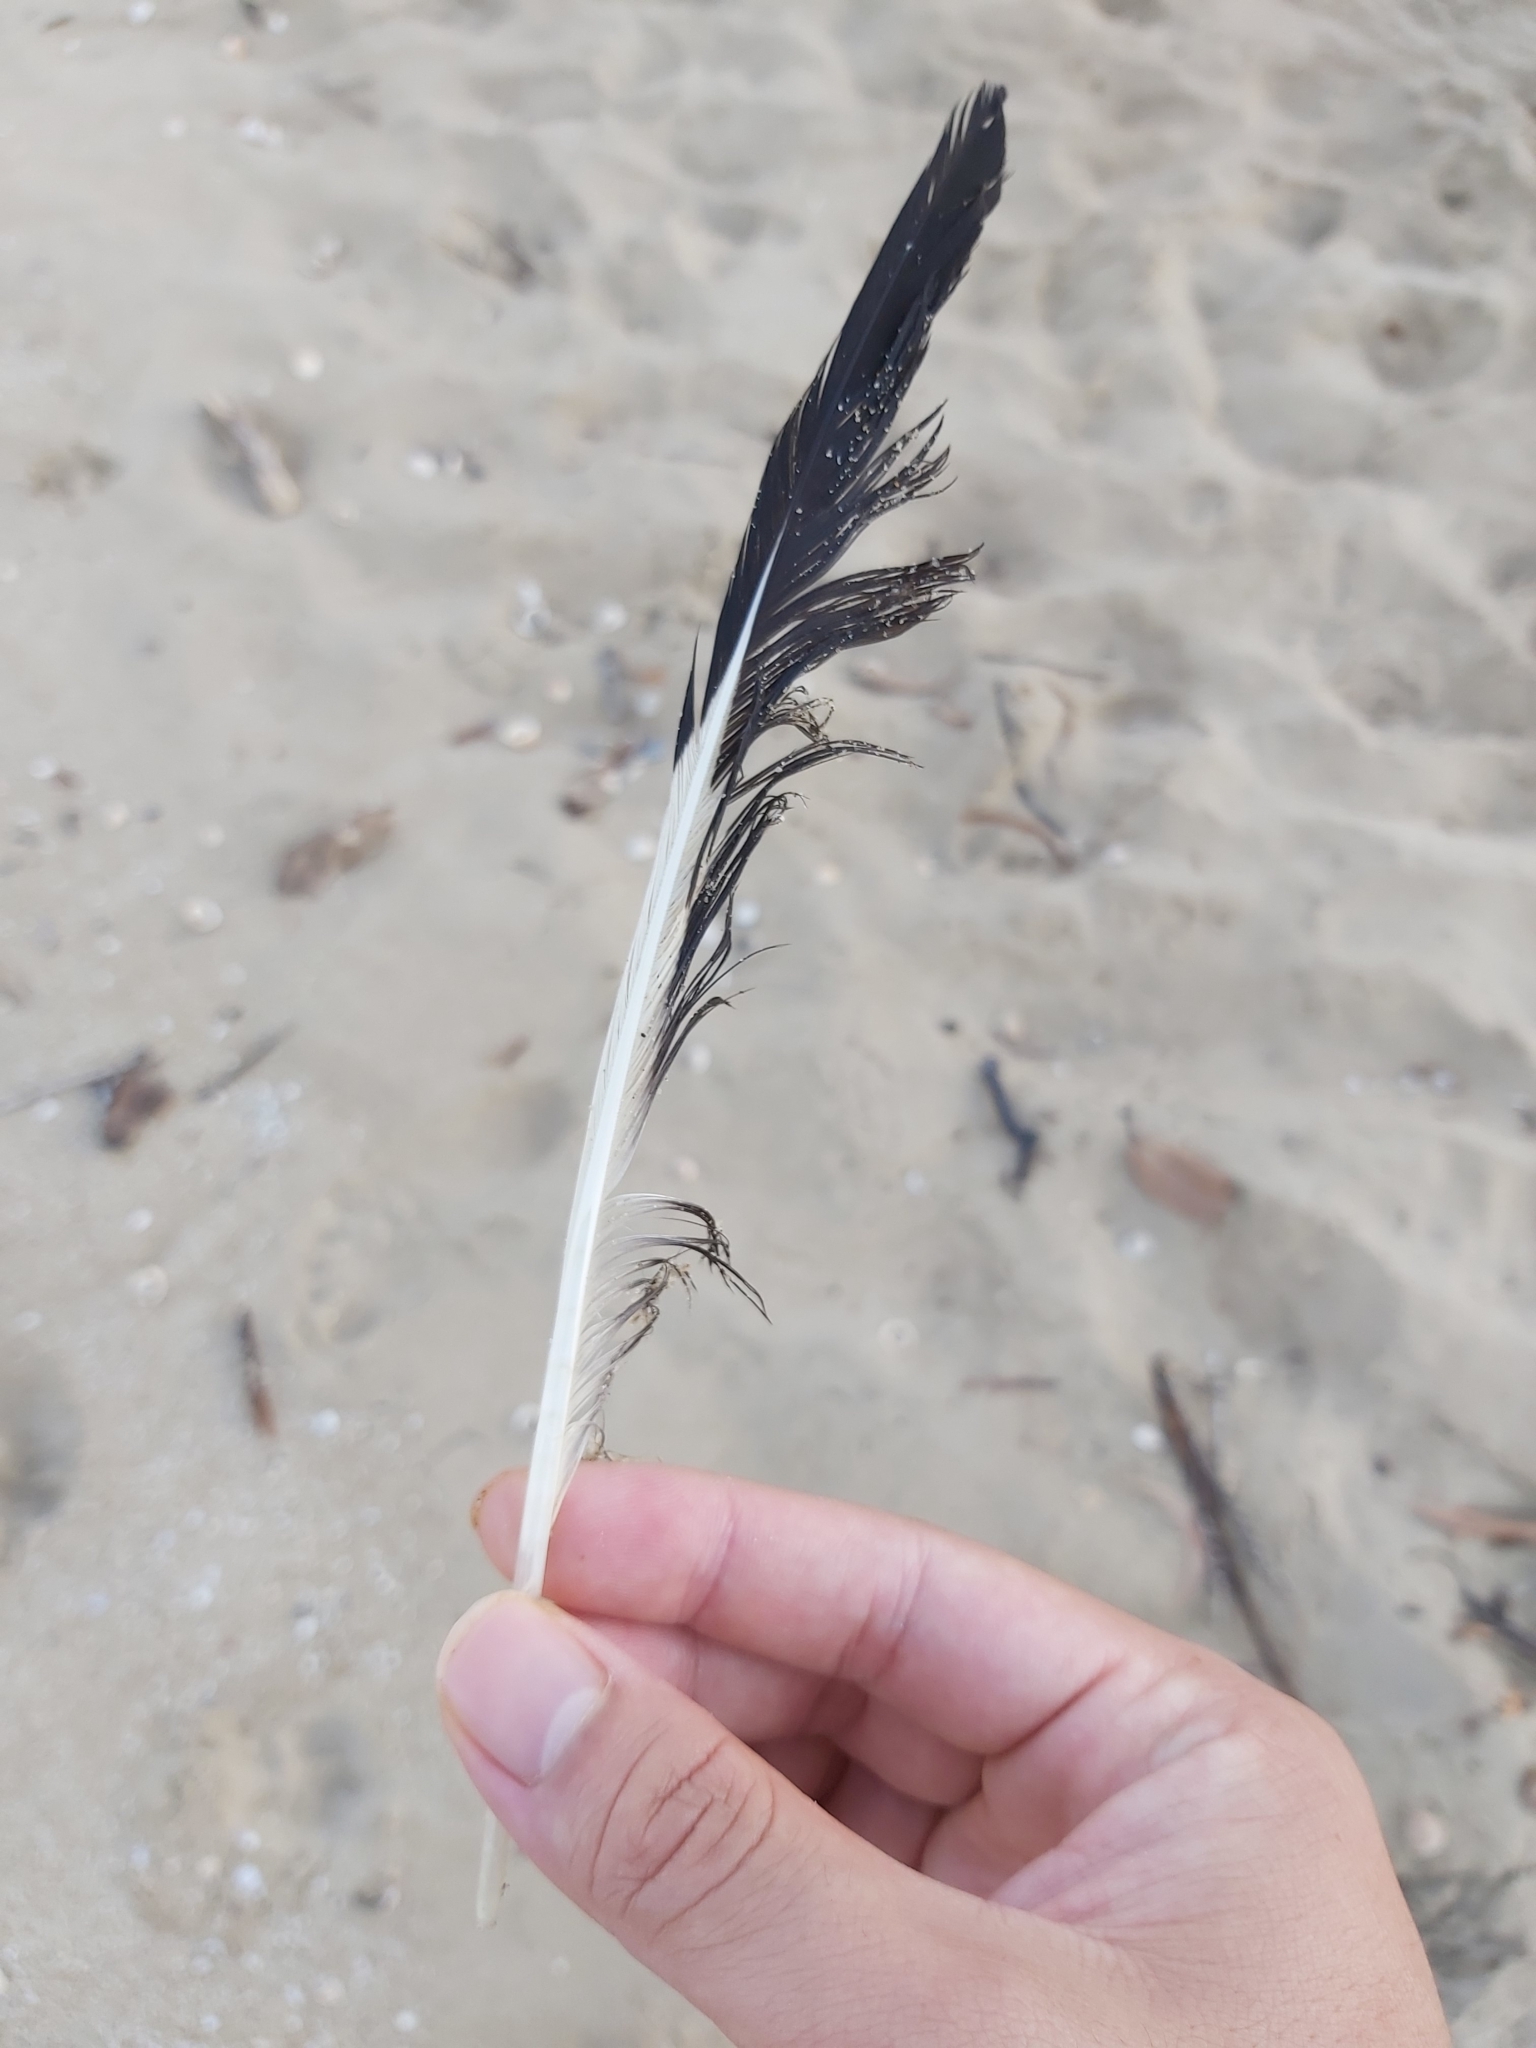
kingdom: Animalia
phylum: Chordata
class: Aves
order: Charadriiformes
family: Laridae
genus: Chroicocephalus
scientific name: Chroicocephalus novaehollandiae
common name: Silver gull
